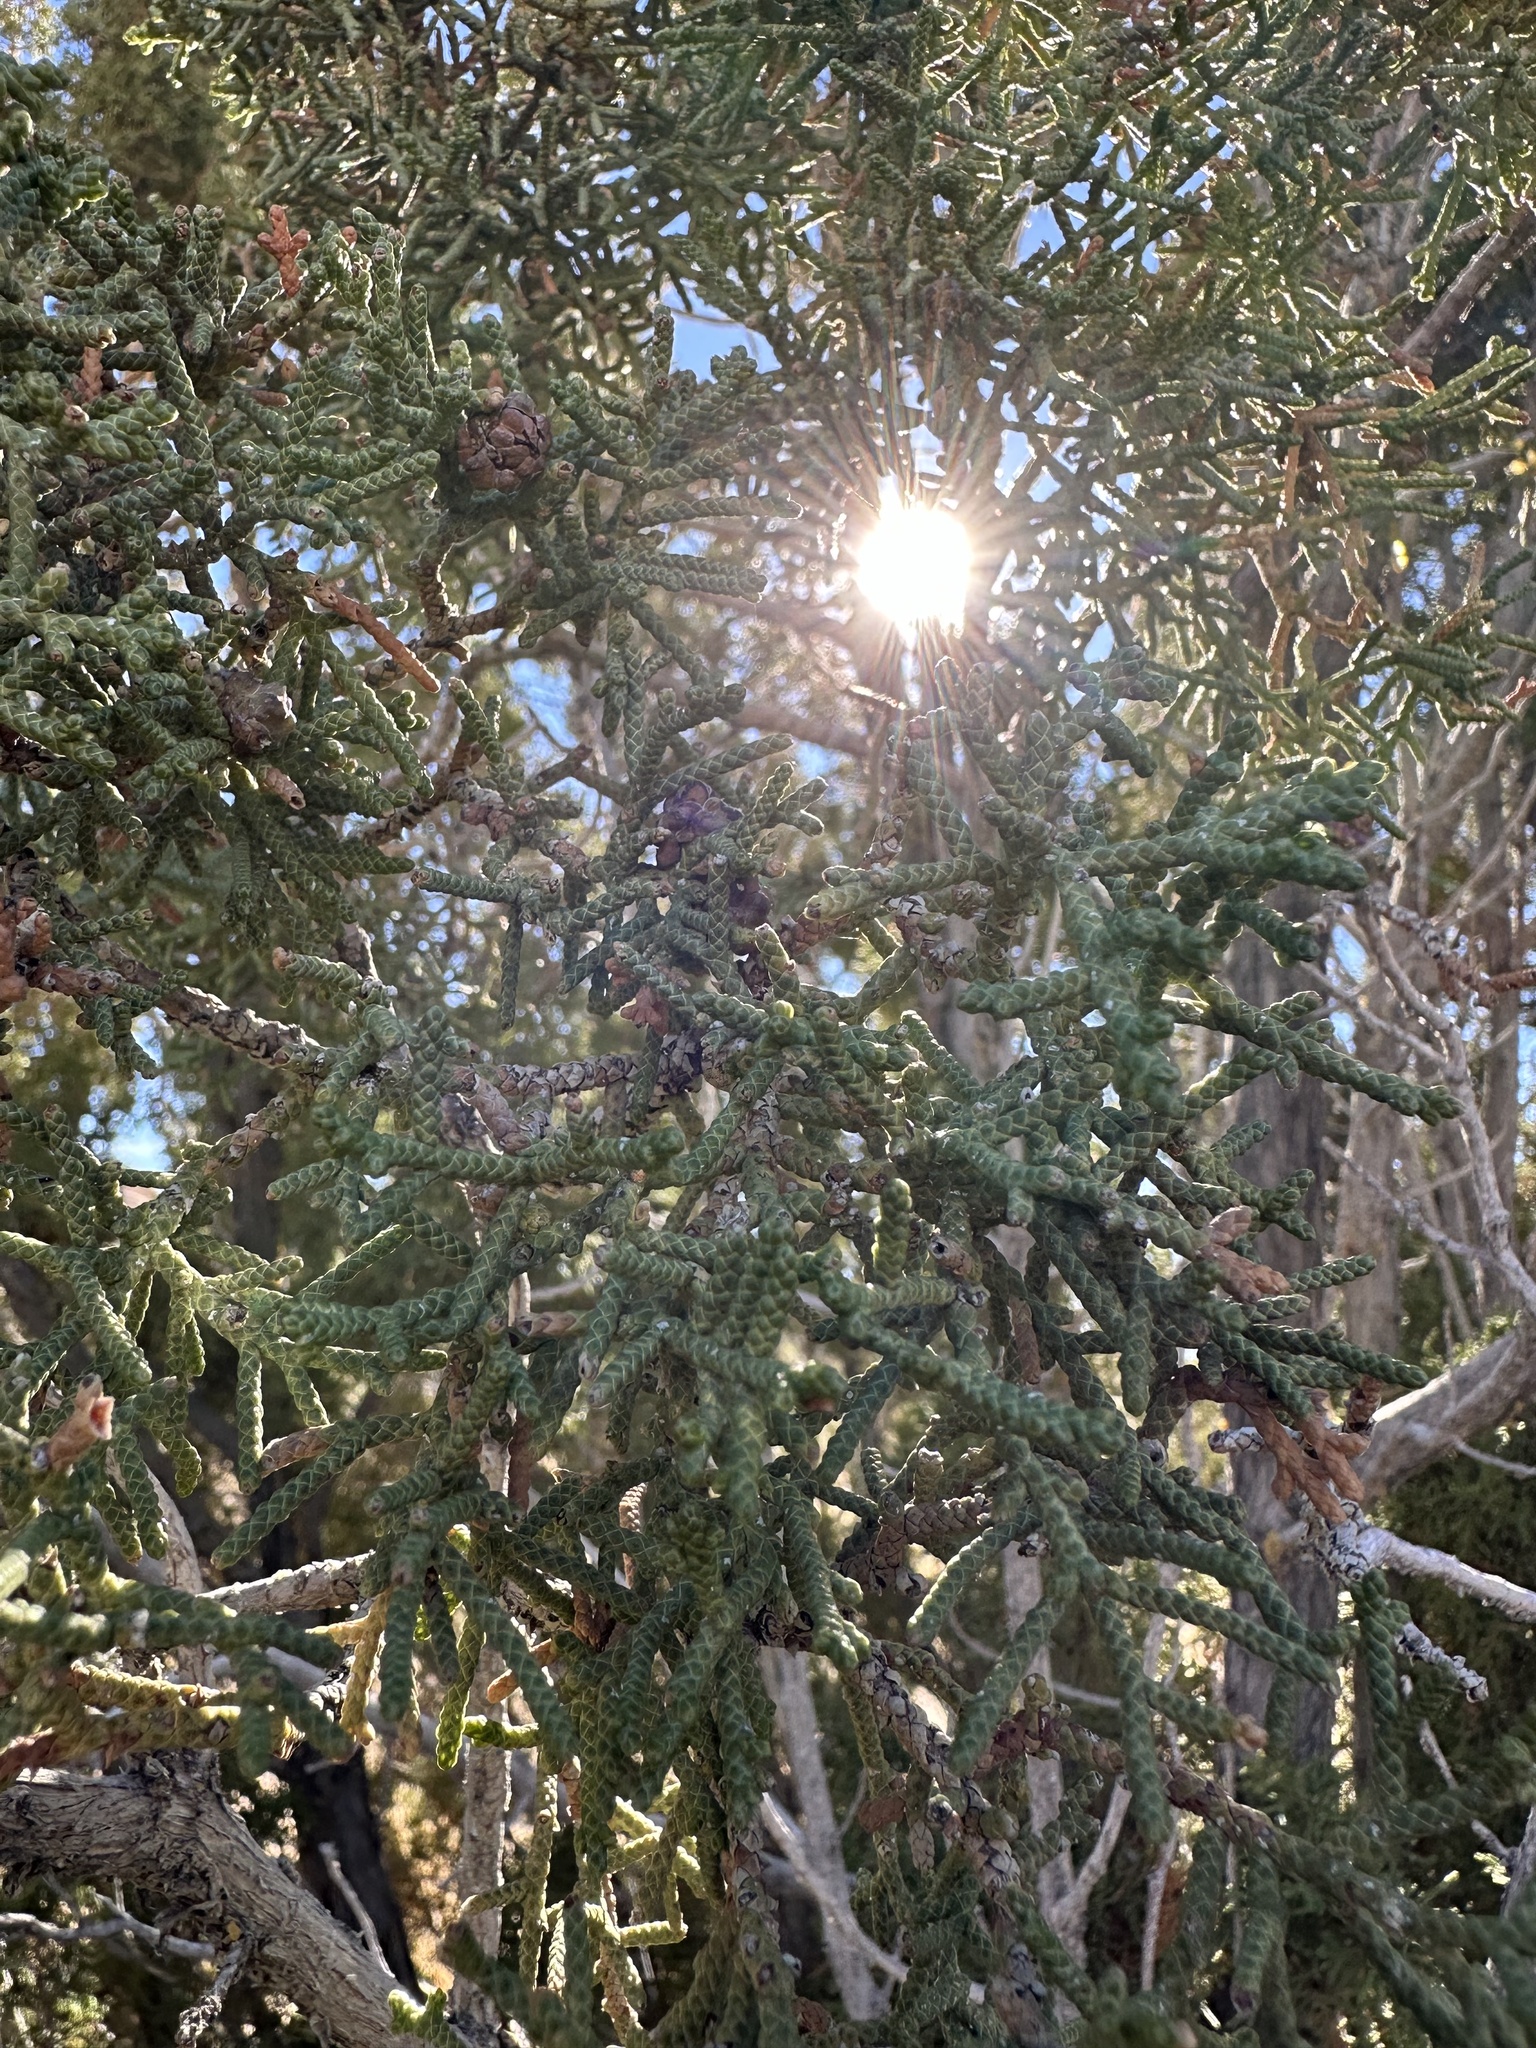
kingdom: Plantae
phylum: Tracheophyta
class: Pinopsida
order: Pinales
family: Cupressaceae
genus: Juniperus
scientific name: Juniperus californica
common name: California juniper
